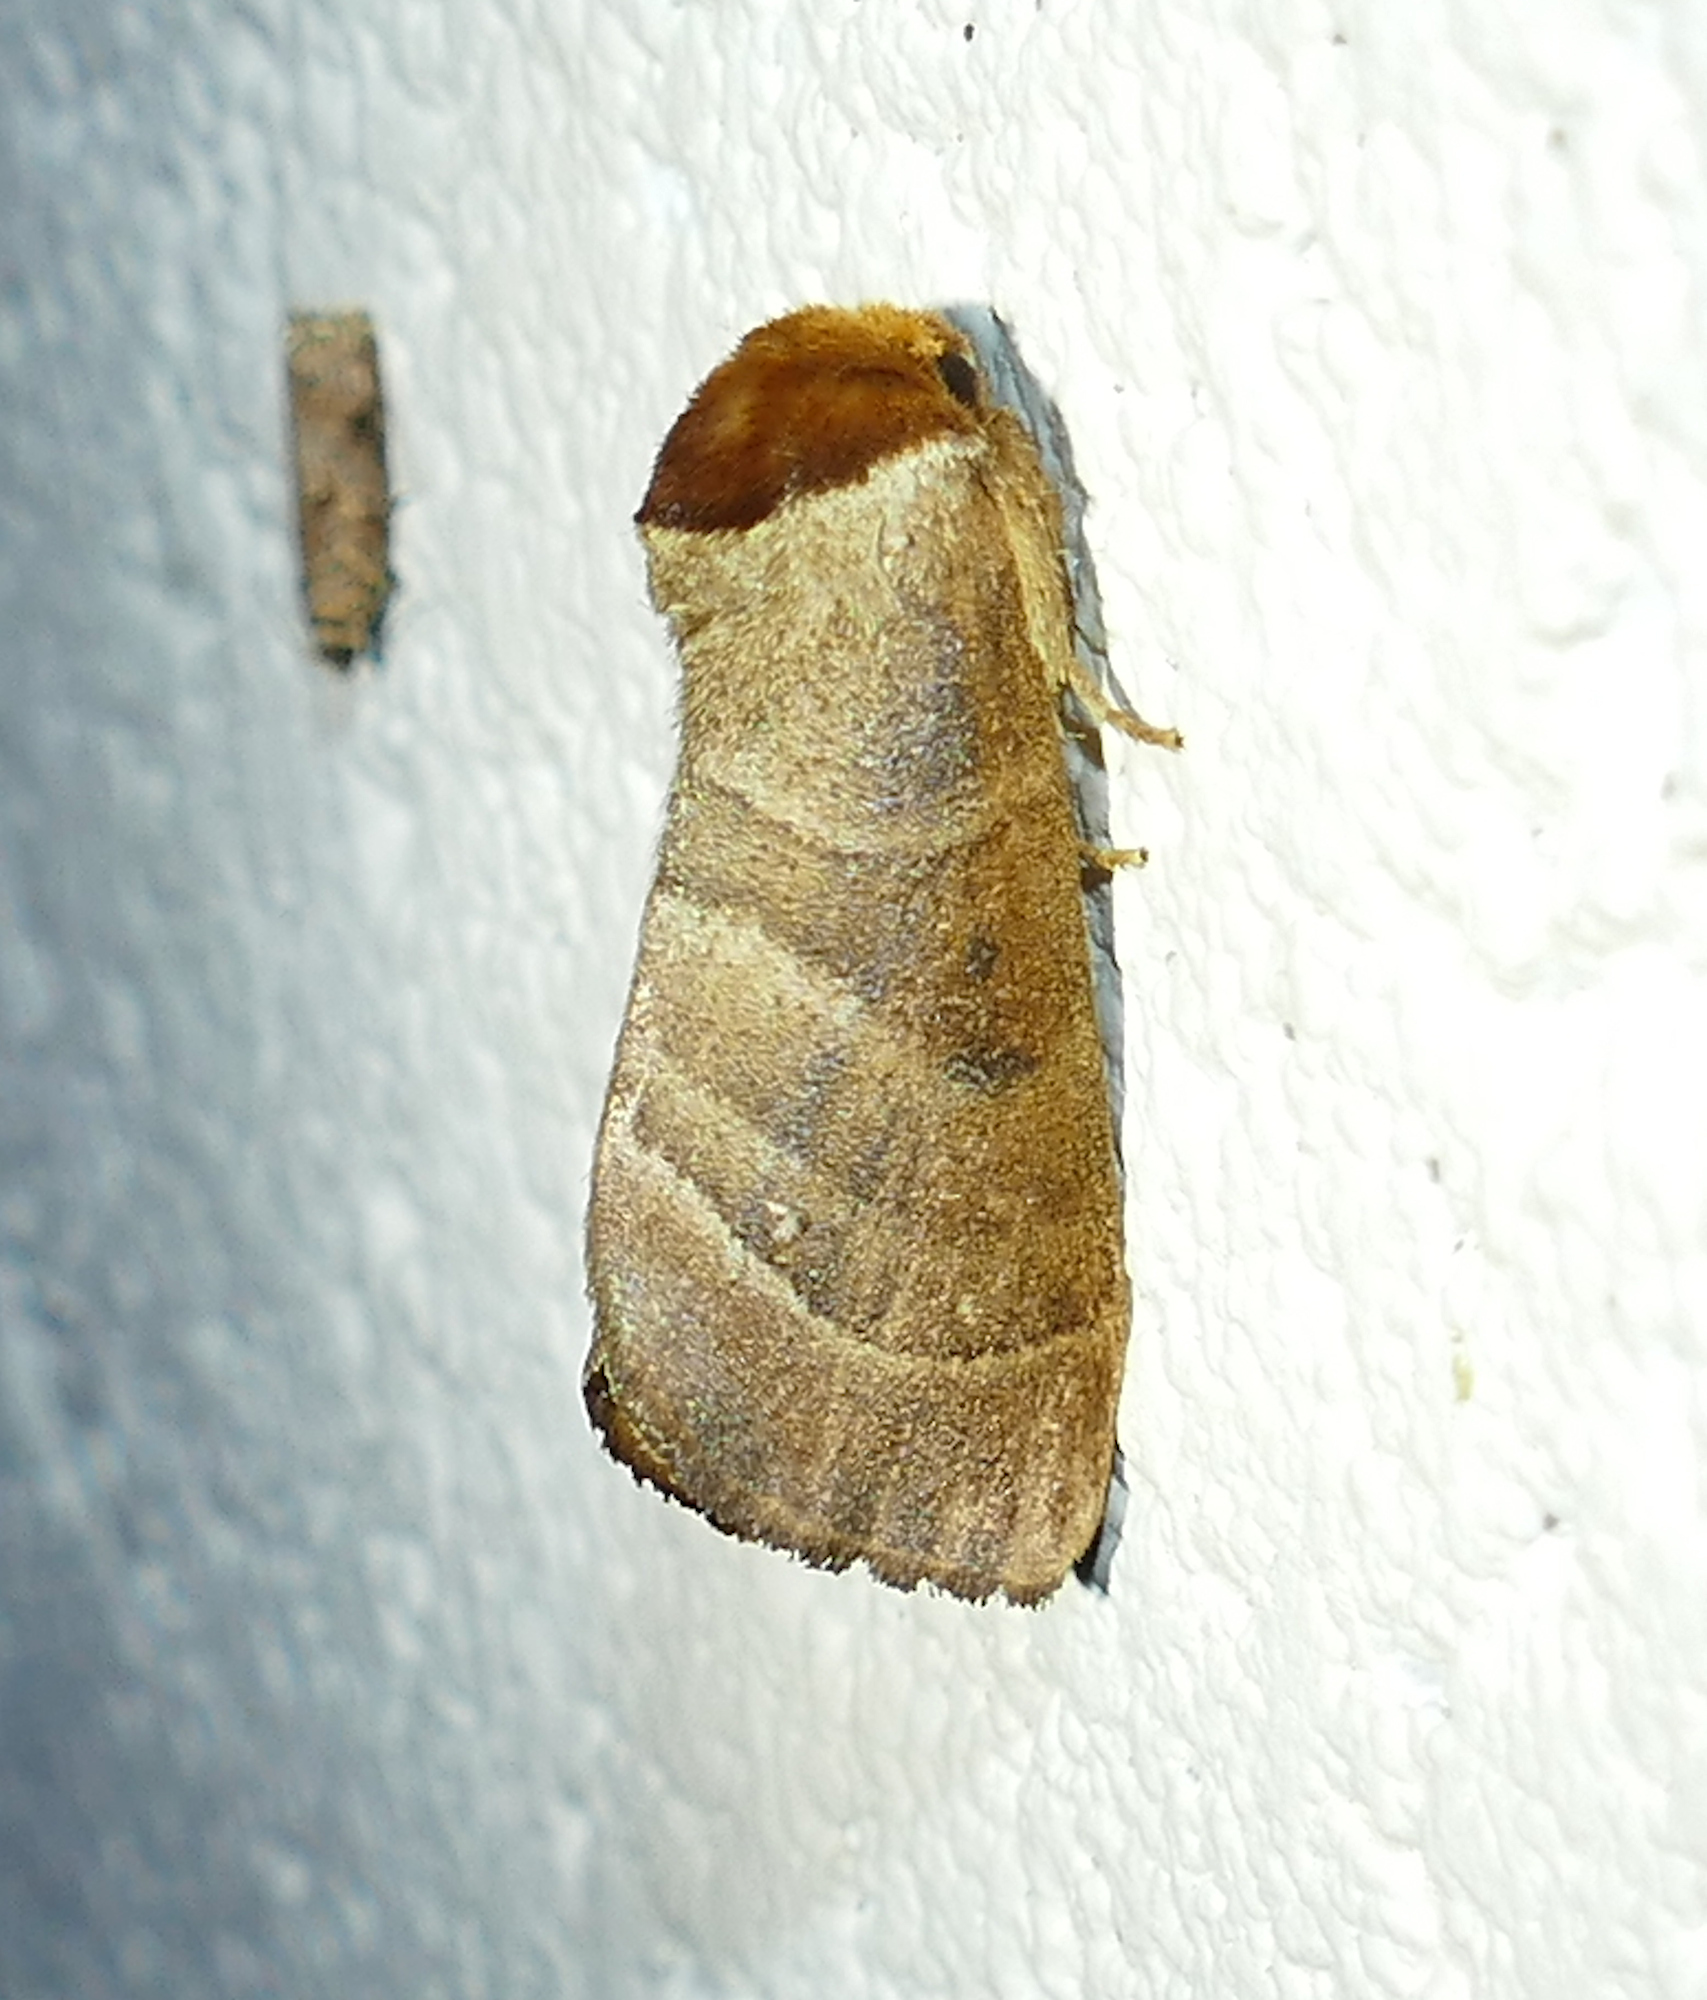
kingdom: Animalia
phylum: Arthropoda
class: Insecta
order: Lepidoptera
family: Notodontidae
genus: Datana
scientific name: Datana integerrima
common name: Walnut caterpillar
